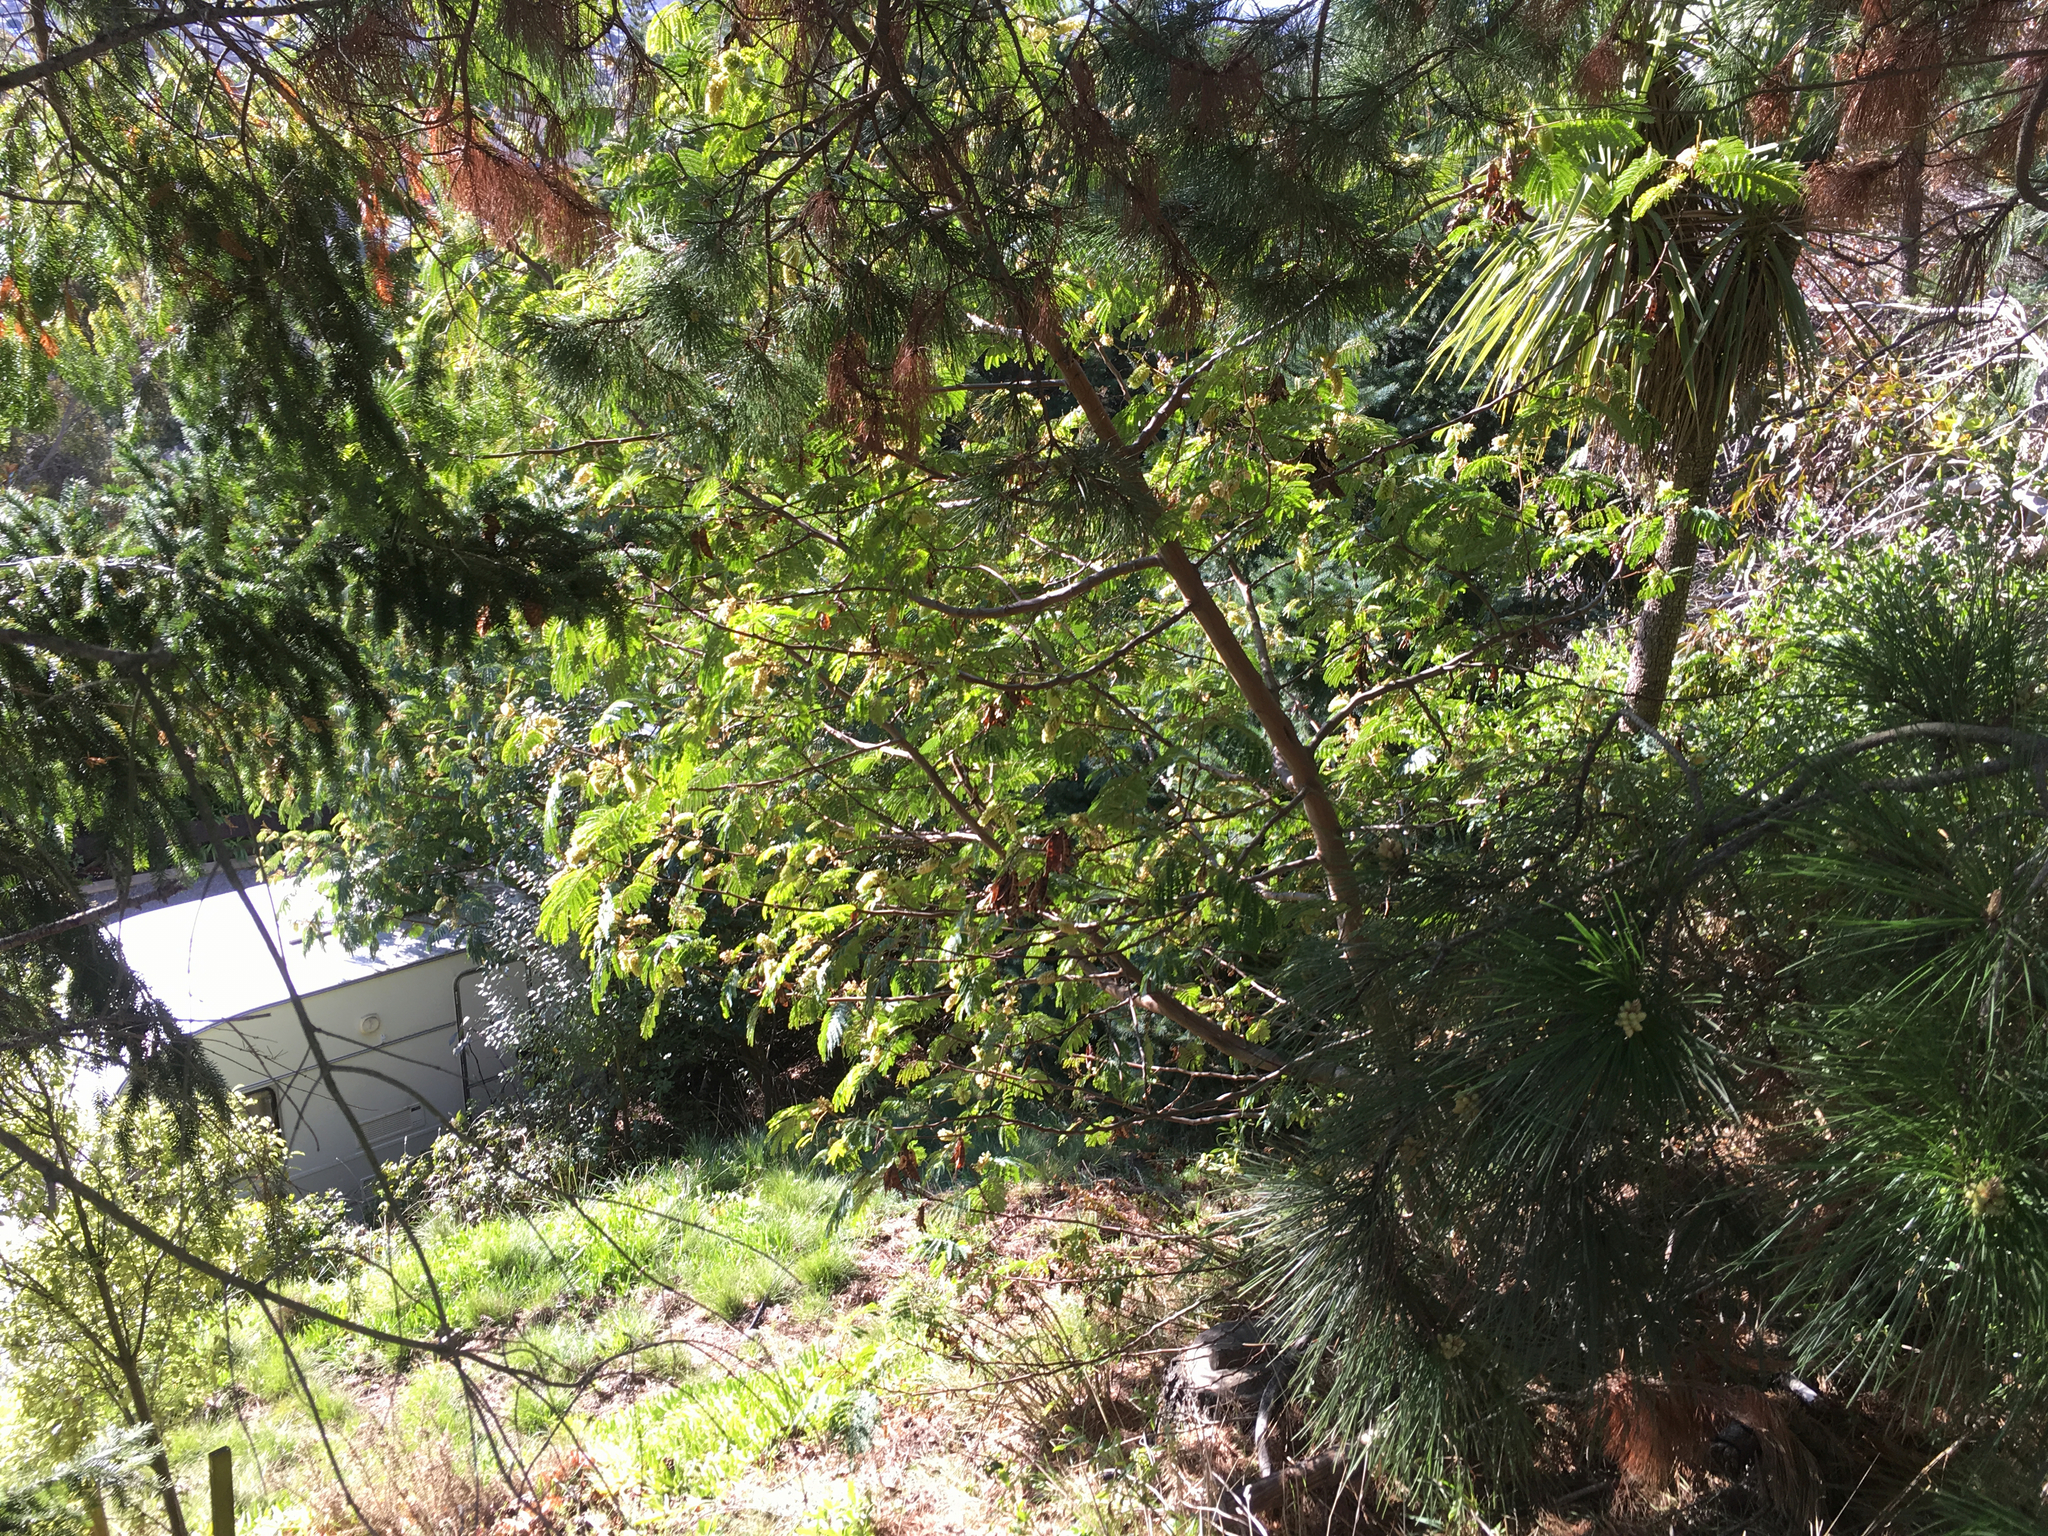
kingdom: Plantae
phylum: Tracheophyta
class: Magnoliopsida
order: Fabales
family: Fabaceae
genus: Paraserianthes
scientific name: Paraserianthes lophantha
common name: Plume albizia
